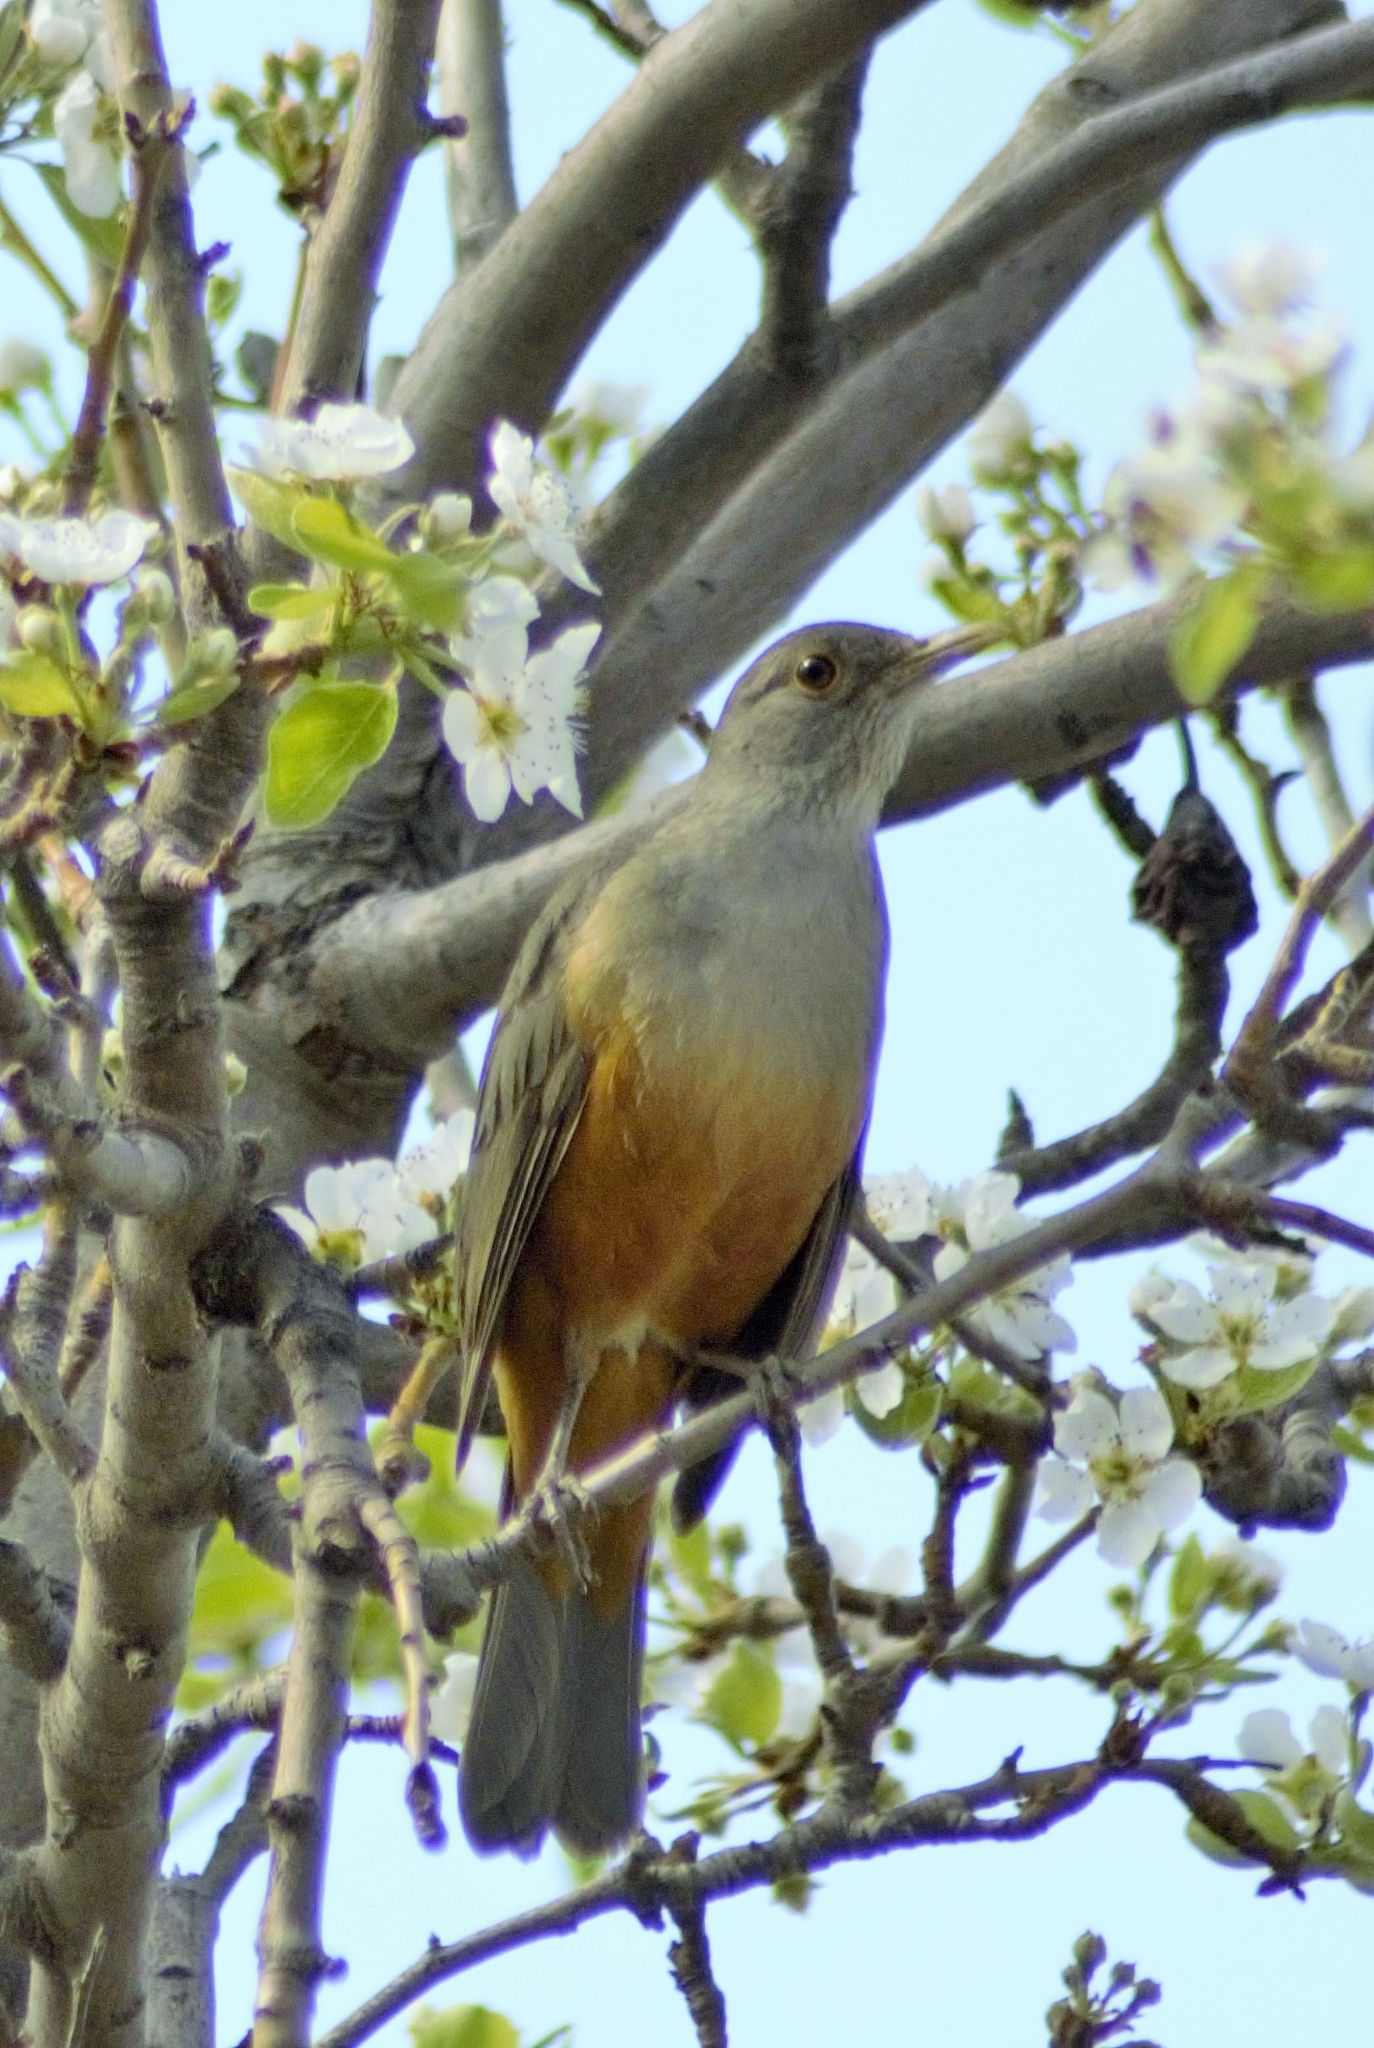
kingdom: Animalia
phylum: Chordata
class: Aves
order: Passeriformes
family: Turdidae
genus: Turdus
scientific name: Turdus rufiventris
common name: Rufous-bellied thrush
